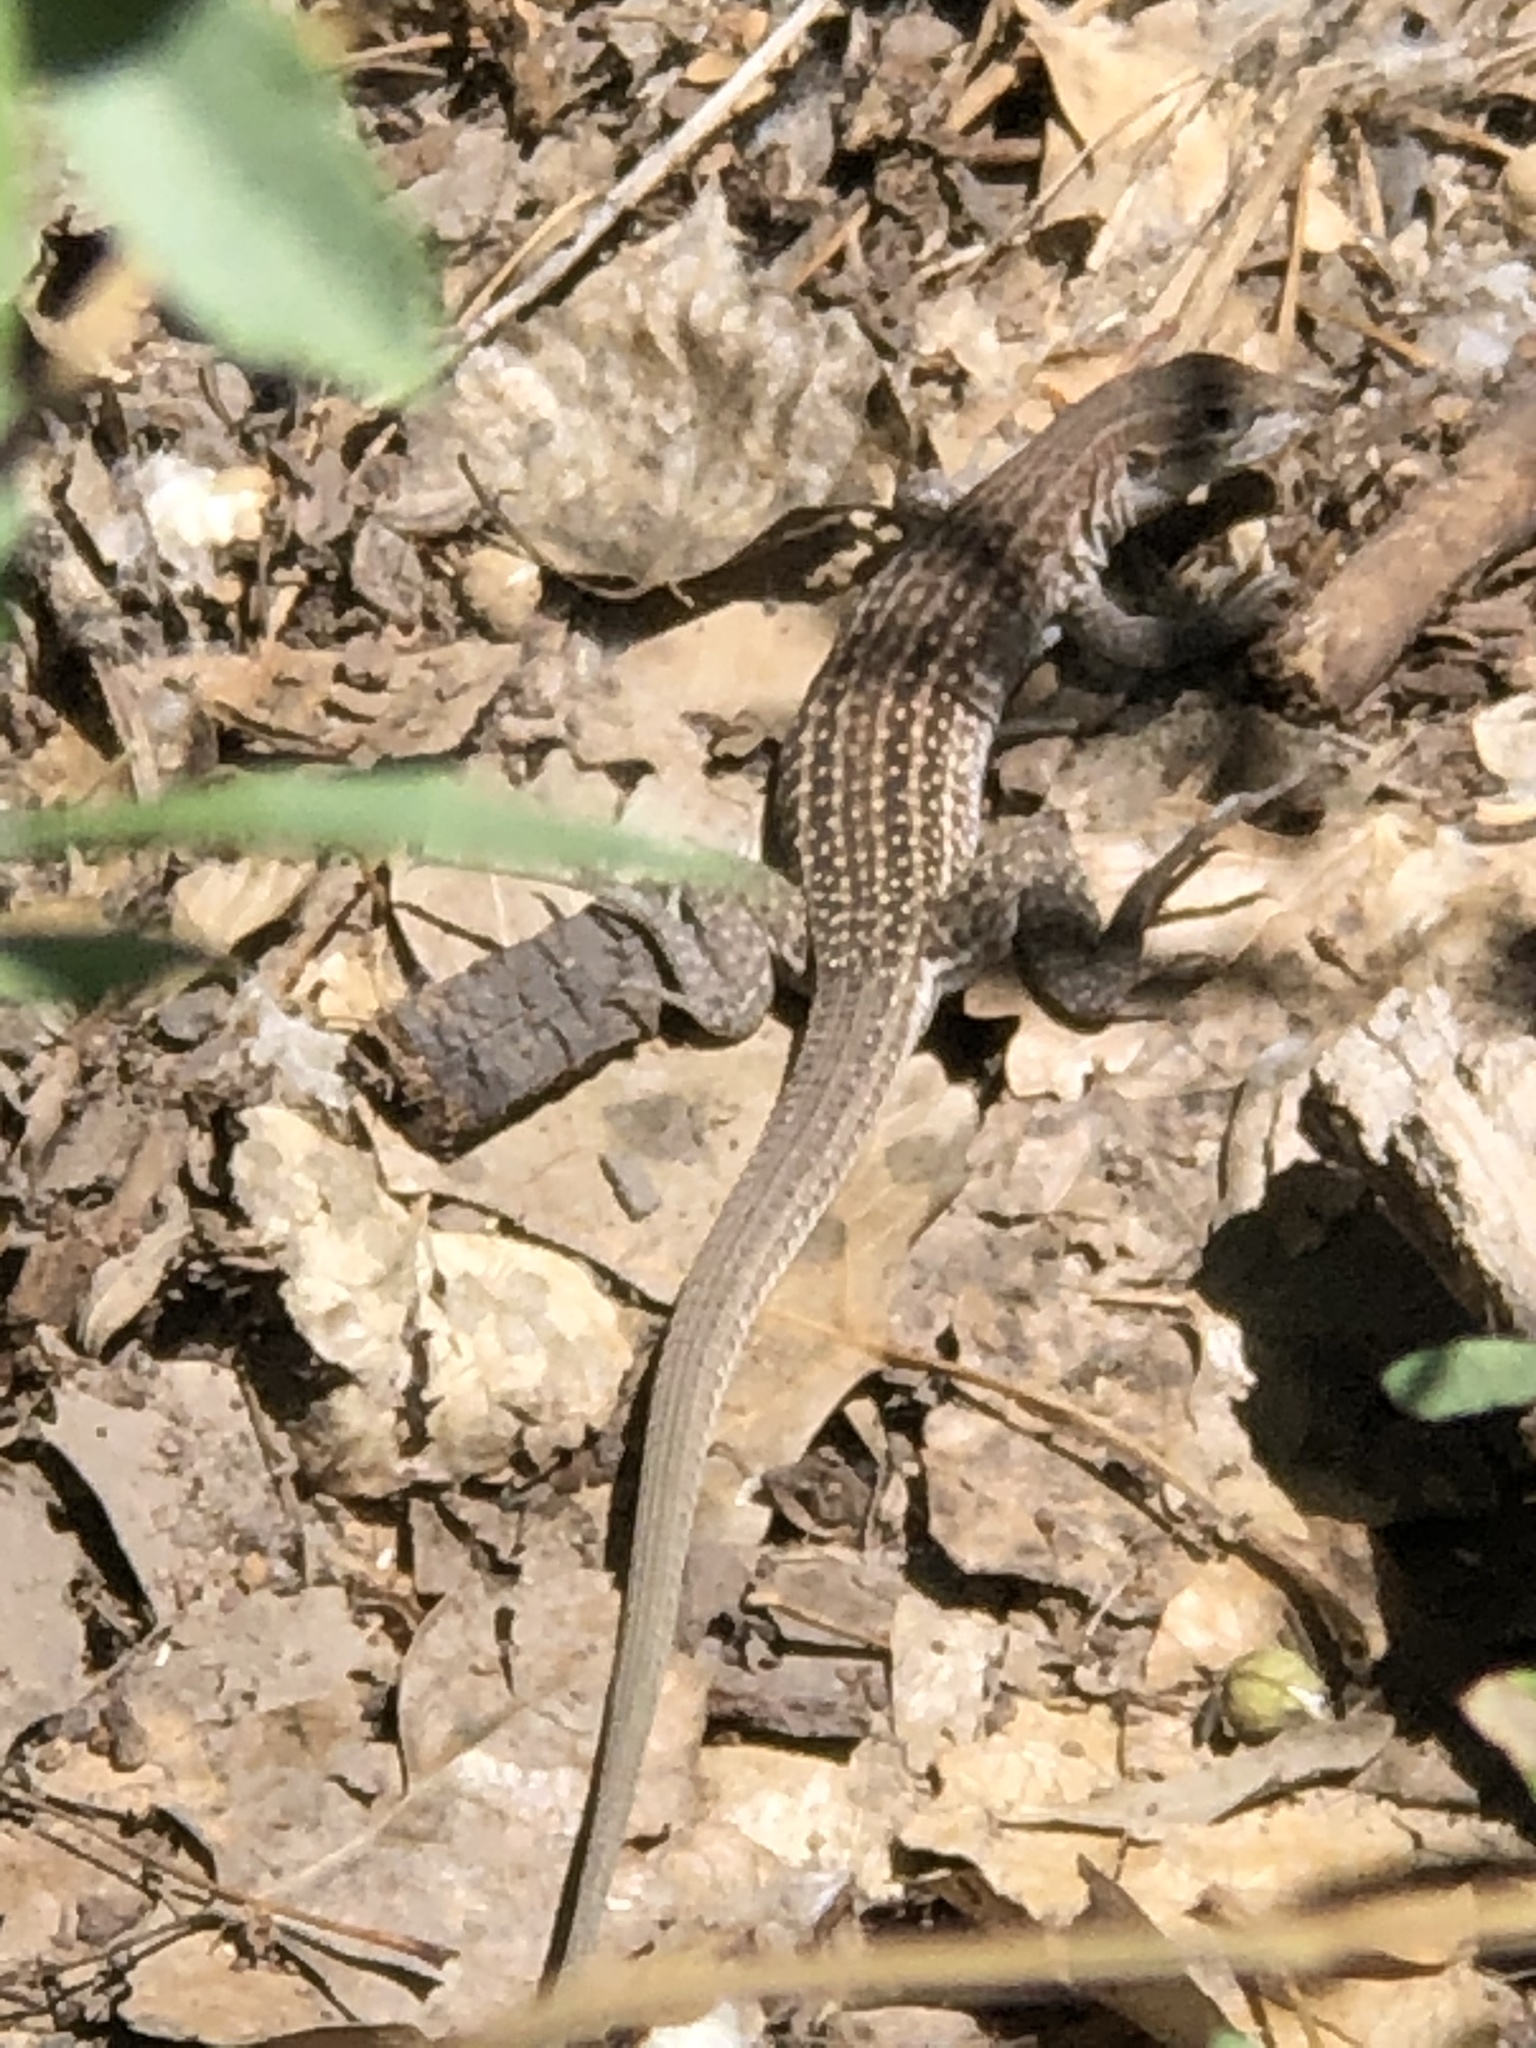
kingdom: Animalia
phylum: Chordata
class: Squamata
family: Teiidae
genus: Aspidoscelis
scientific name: Aspidoscelis exsanguis
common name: Chihuahuan spotted whiptail
